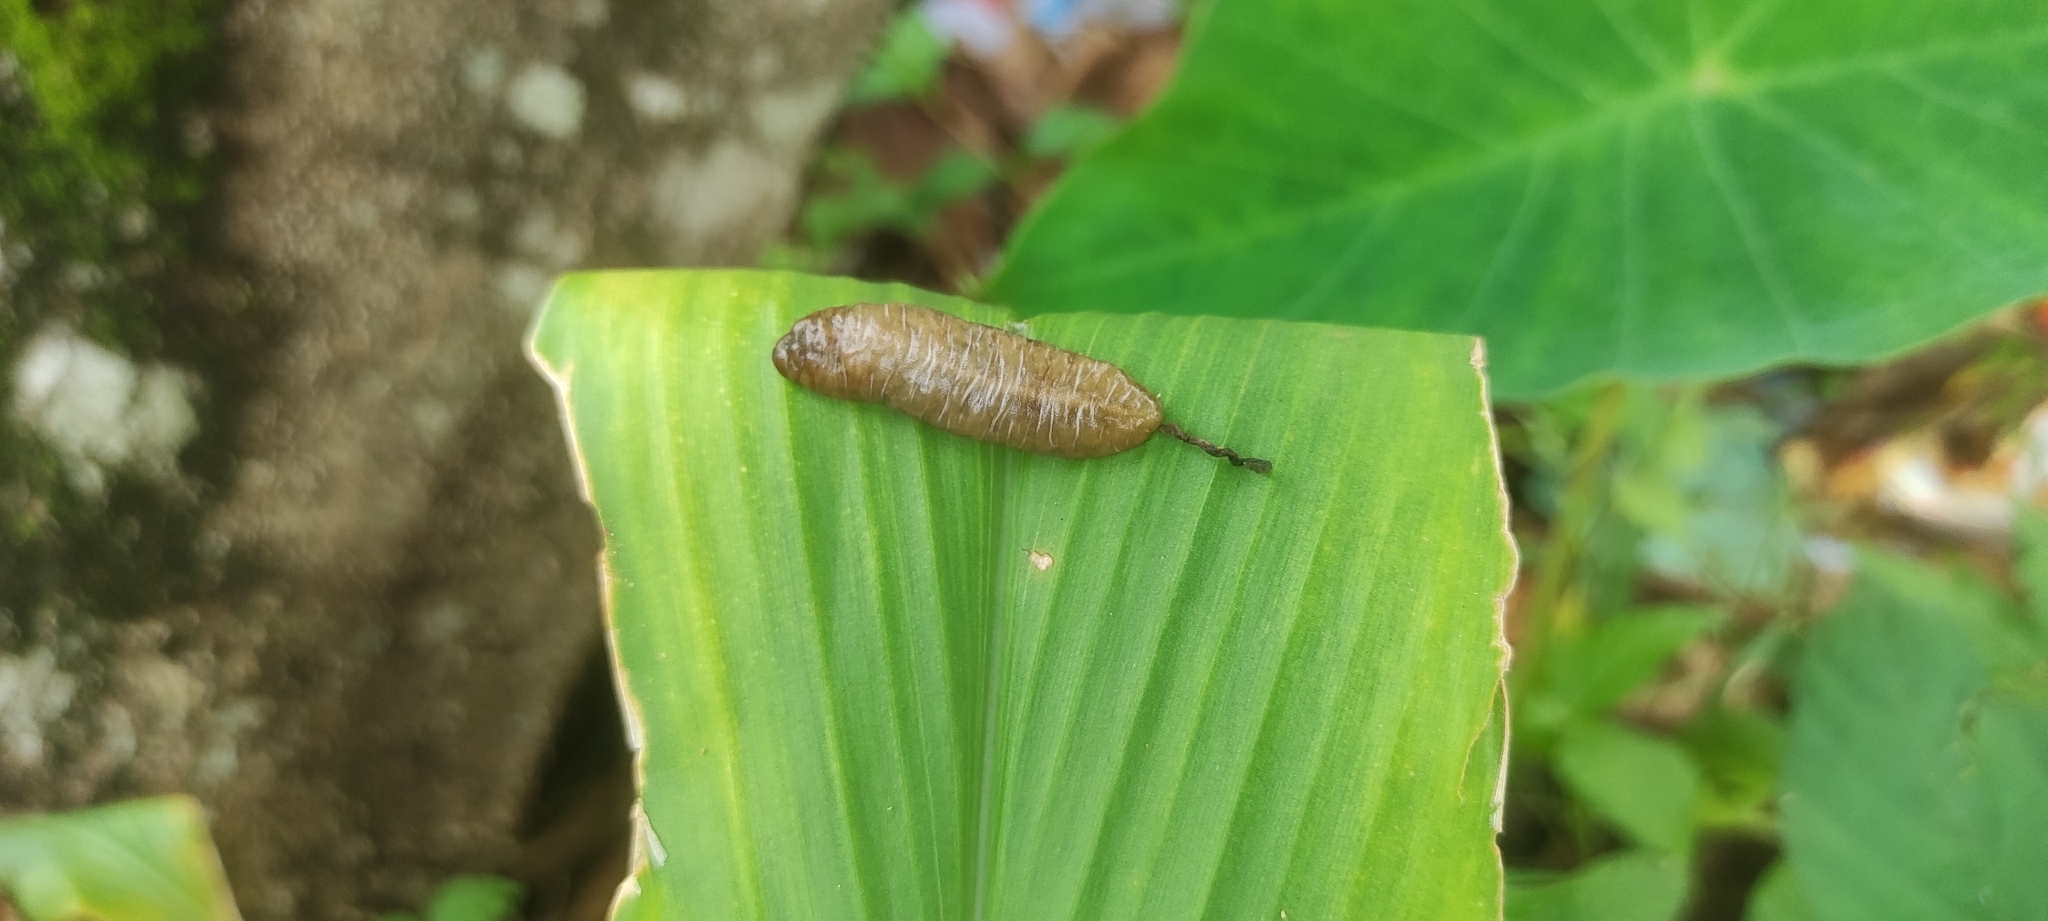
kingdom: Animalia
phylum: Mollusca
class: Gastropoda
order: Systellommatophora
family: Veronicellidae
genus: Laevicaulis
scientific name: Laevicaulis haroldi
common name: Caterpillar slug
